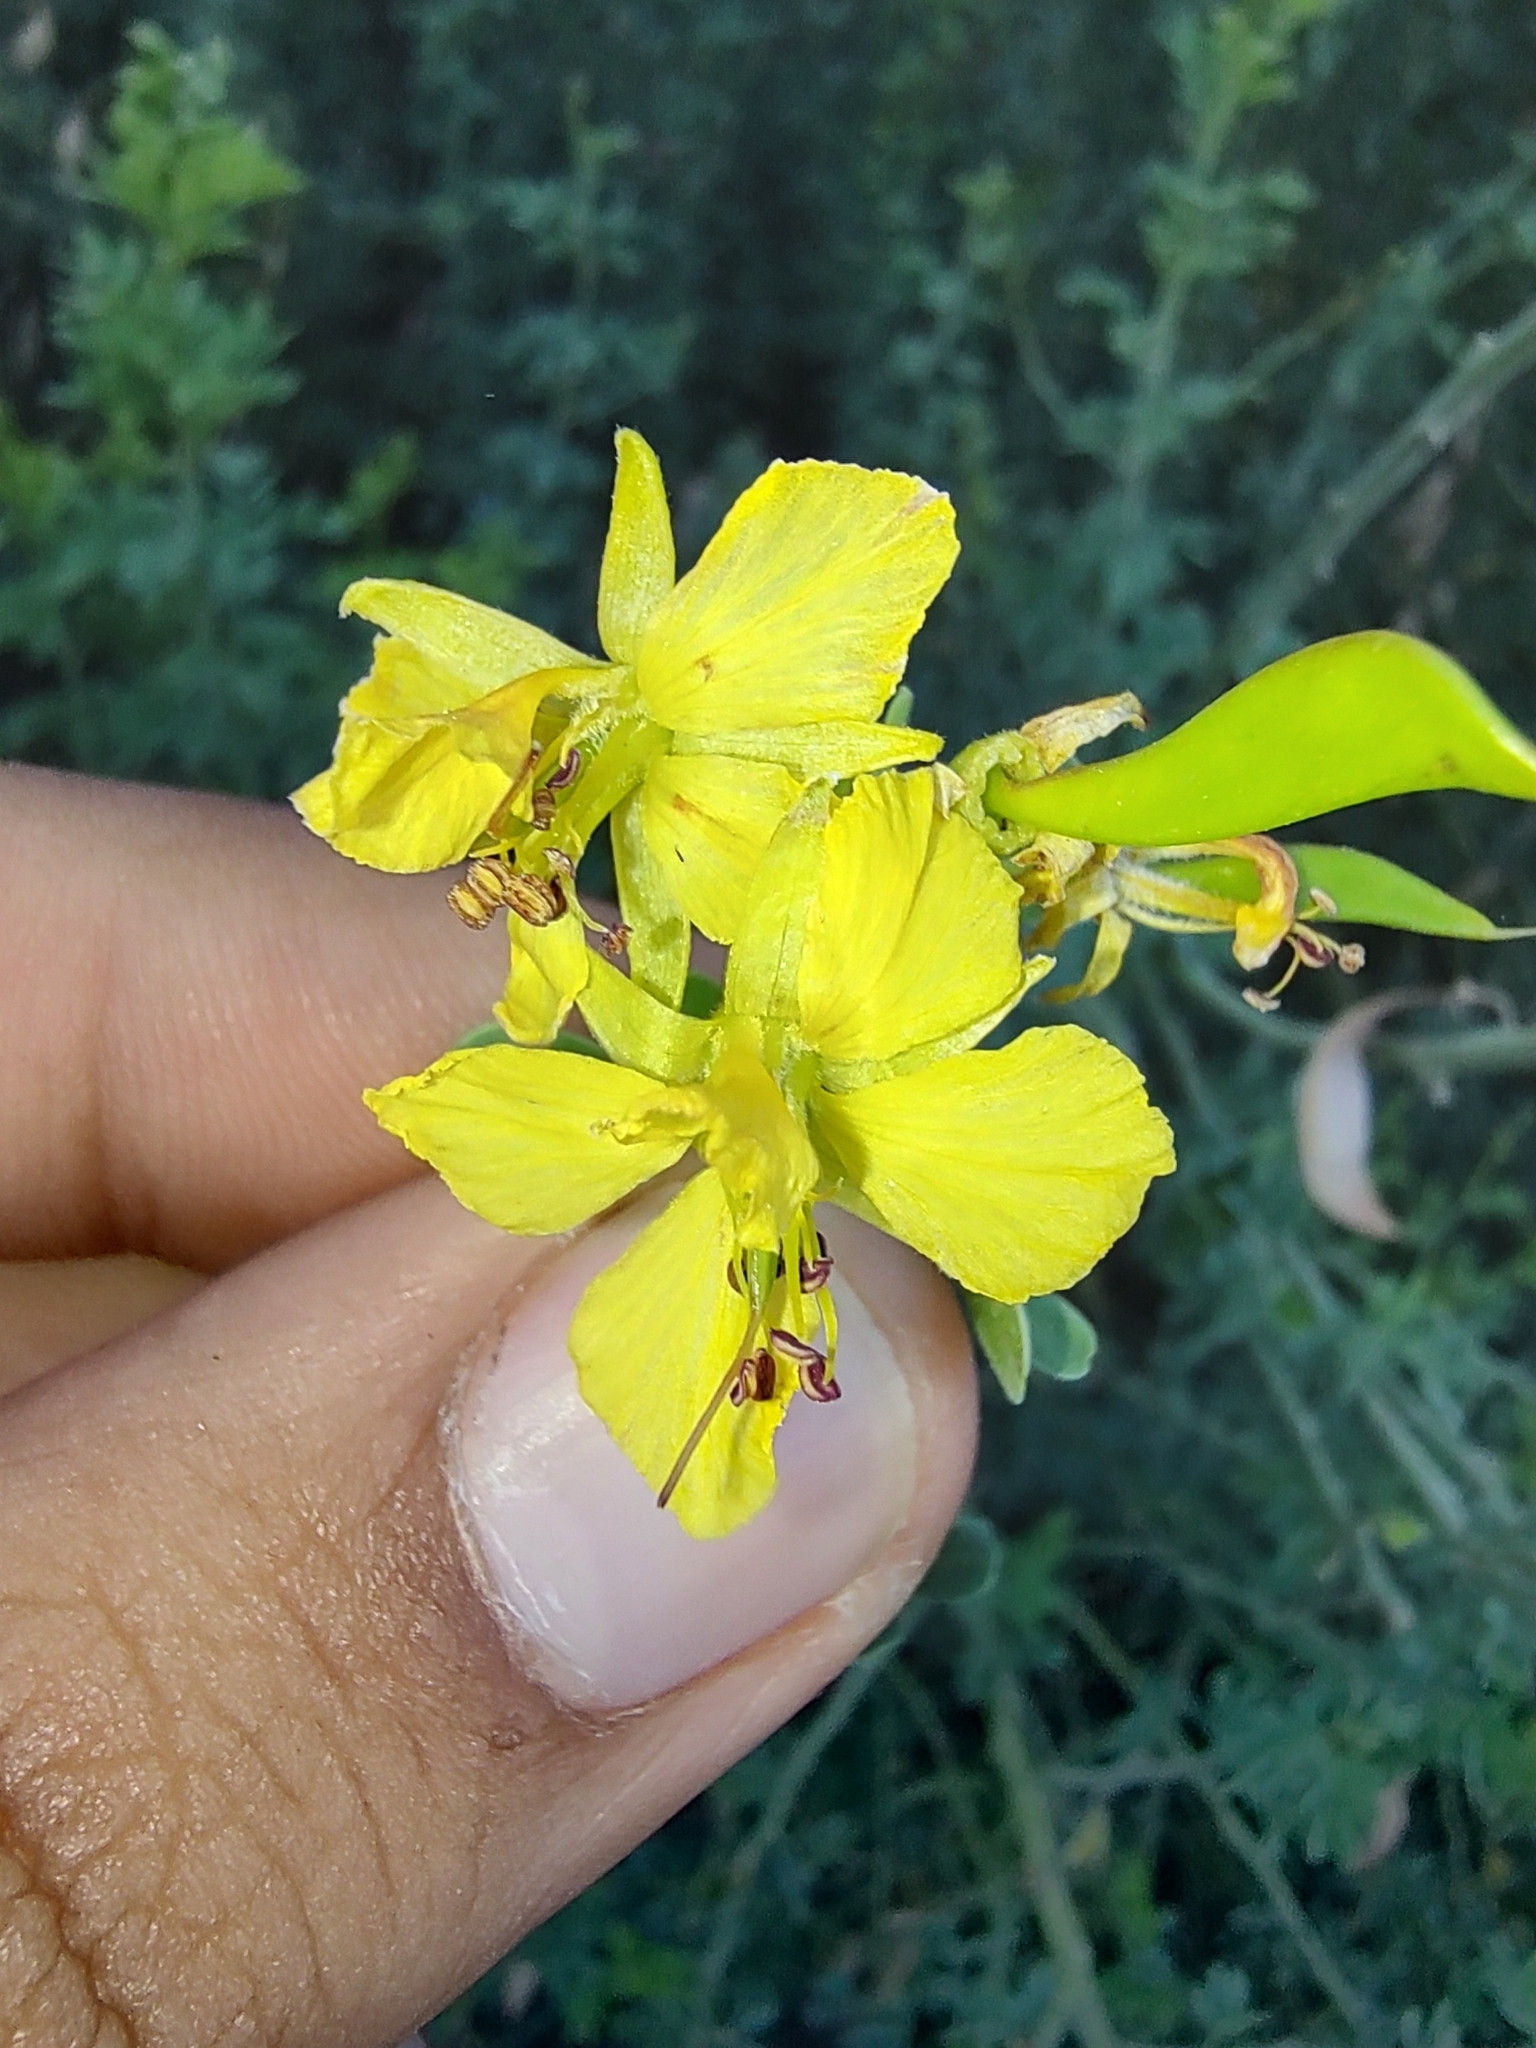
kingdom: Plantae
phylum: Tracheophyta
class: Magnoliopsida
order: Fabales
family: Fabaceae
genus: Parkinsonia
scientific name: Parkinsonia florida
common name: Blue paloverde
